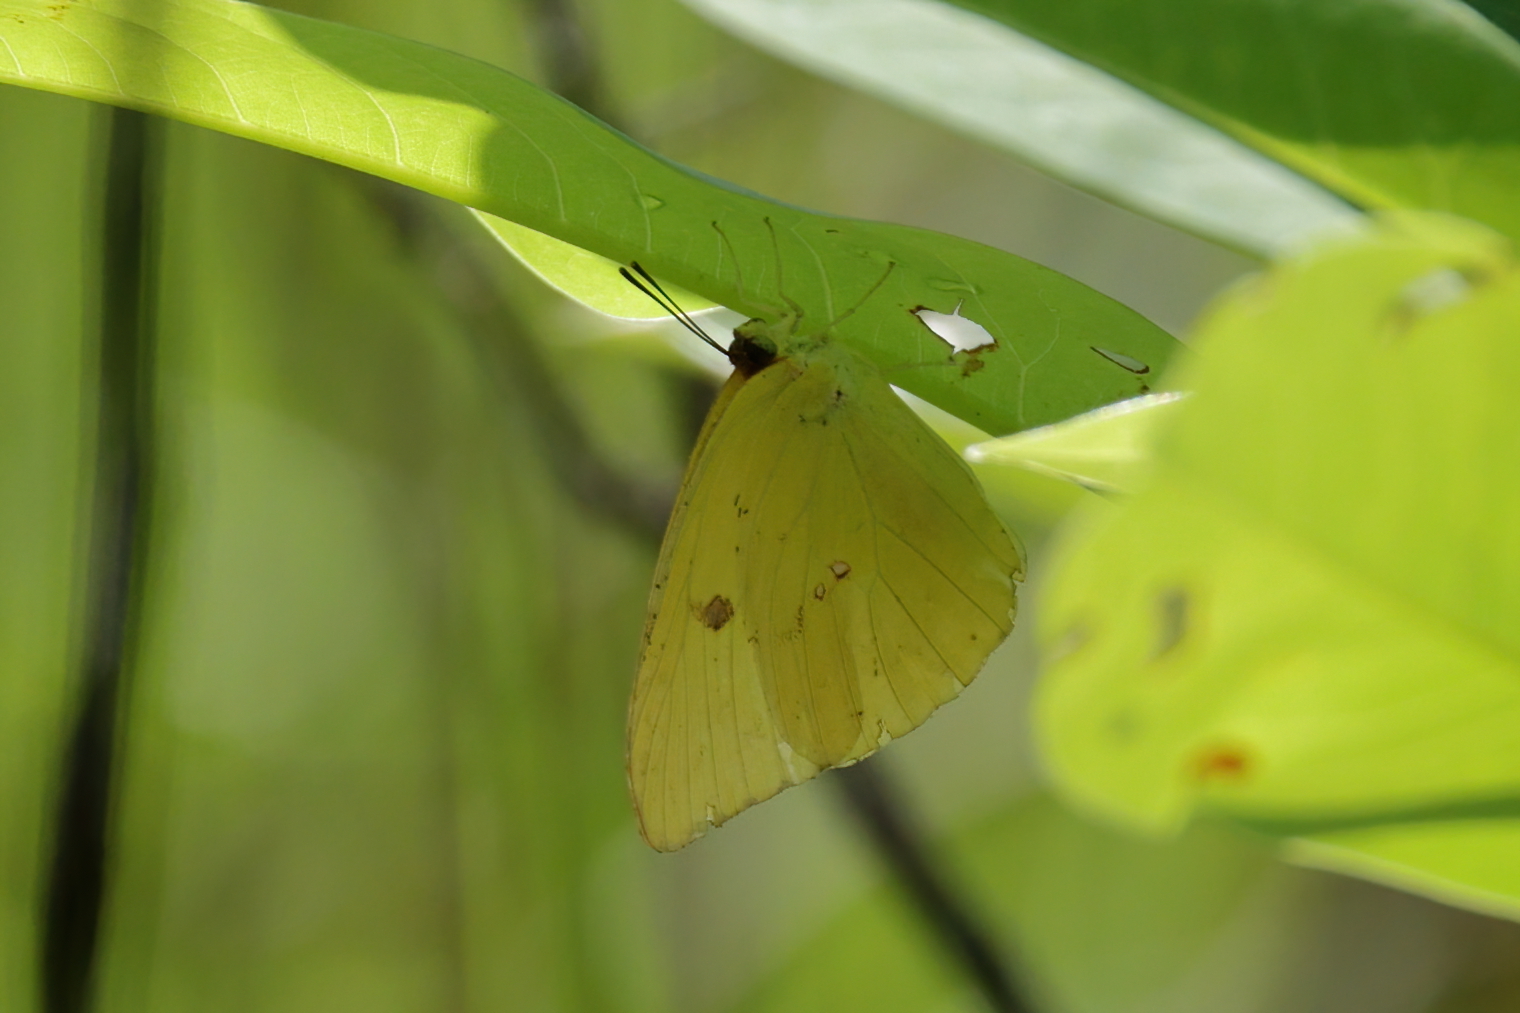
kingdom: Animalia
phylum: Arthropoda
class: Insecta
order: Lepidoptera
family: Pieridae
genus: Phoebis
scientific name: Phoebis sennae
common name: Cloudless sulphur
